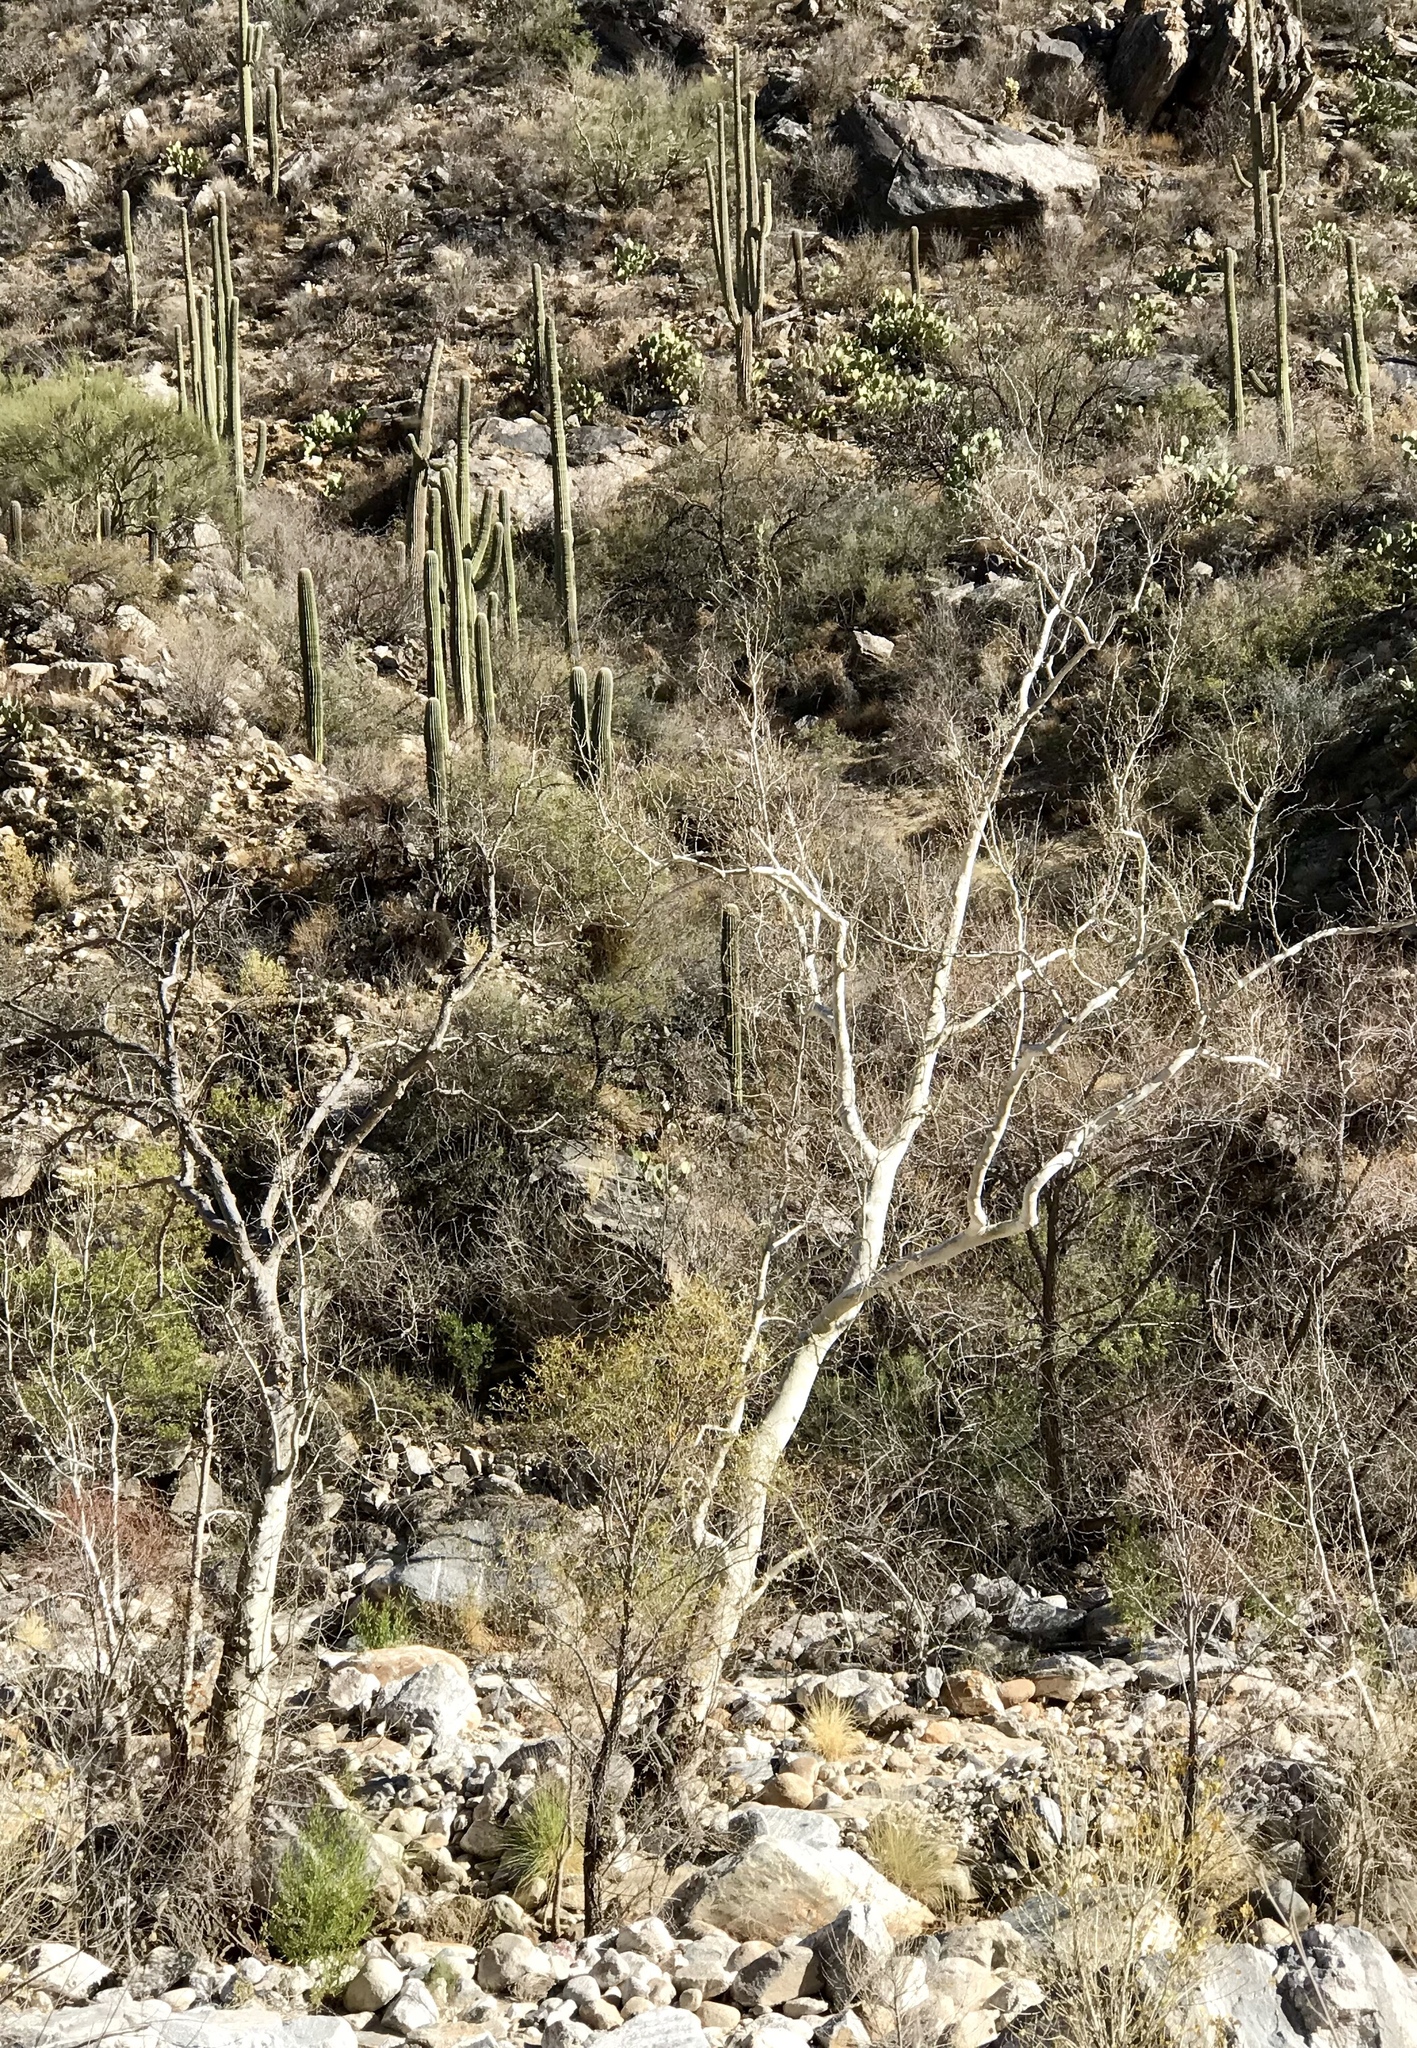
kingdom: Plantae
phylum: Tracheophyta
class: Magnoliopsida
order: Proteales
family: Platanaceae
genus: Platanus
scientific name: Platanus wrightii
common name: Arizona sycamore
